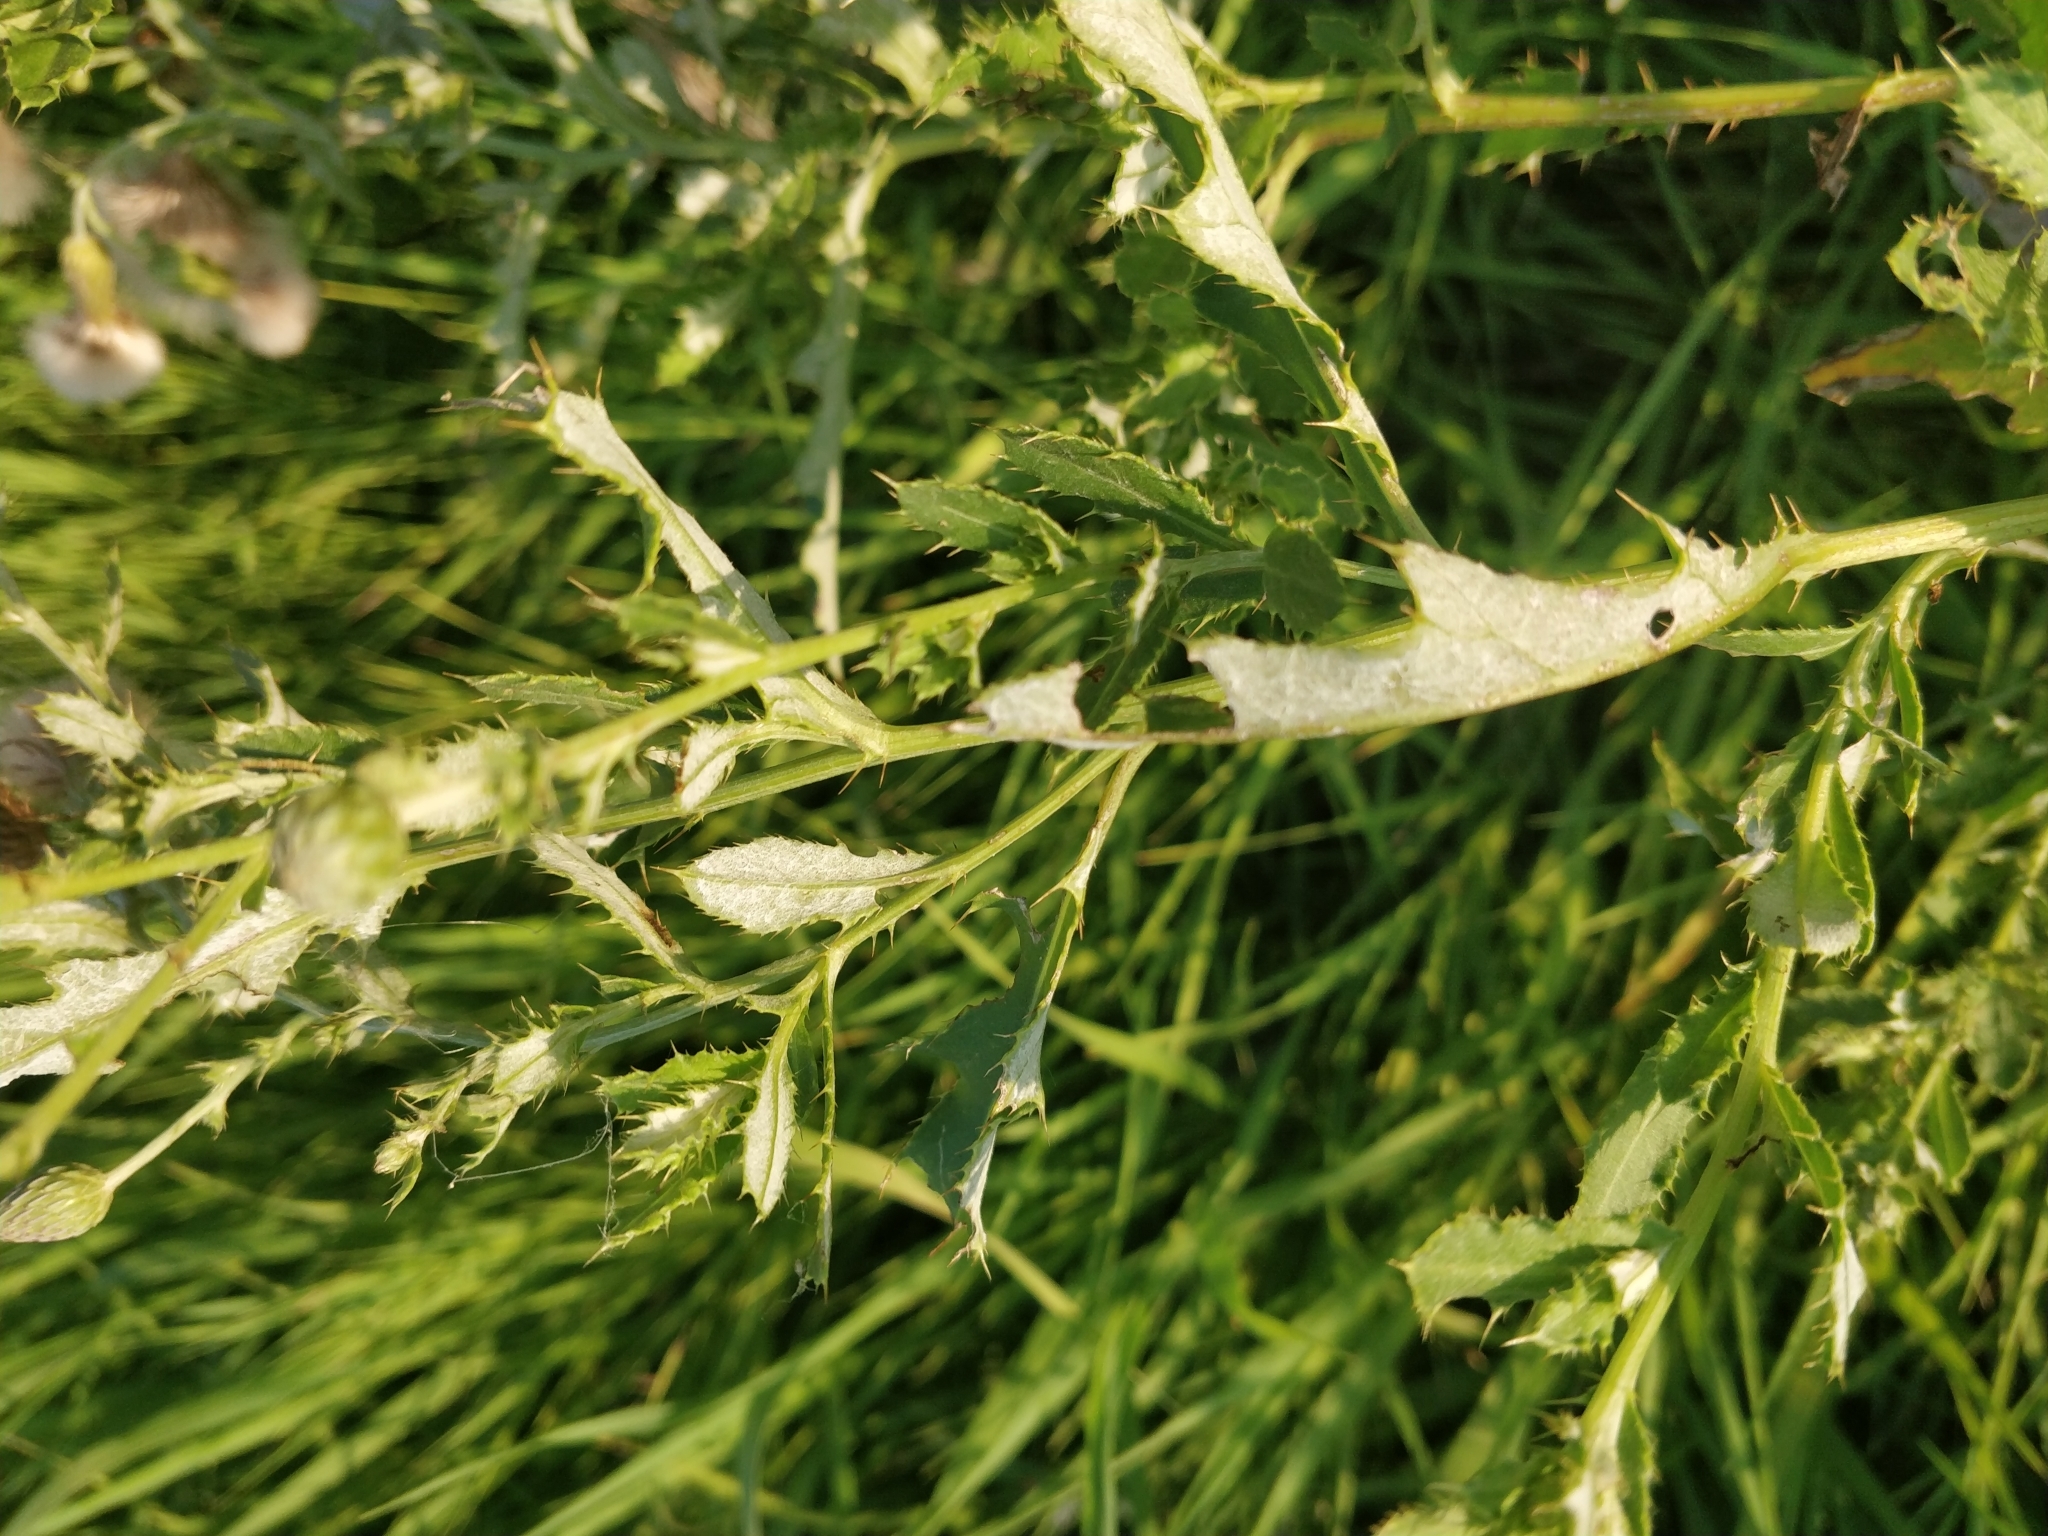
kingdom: Plantae
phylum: Tracheophyta
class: Magnoliopsida
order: Asterales
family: Asteraceae
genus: Cirsium
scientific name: Cirsium arvense
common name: Creeping thistle
